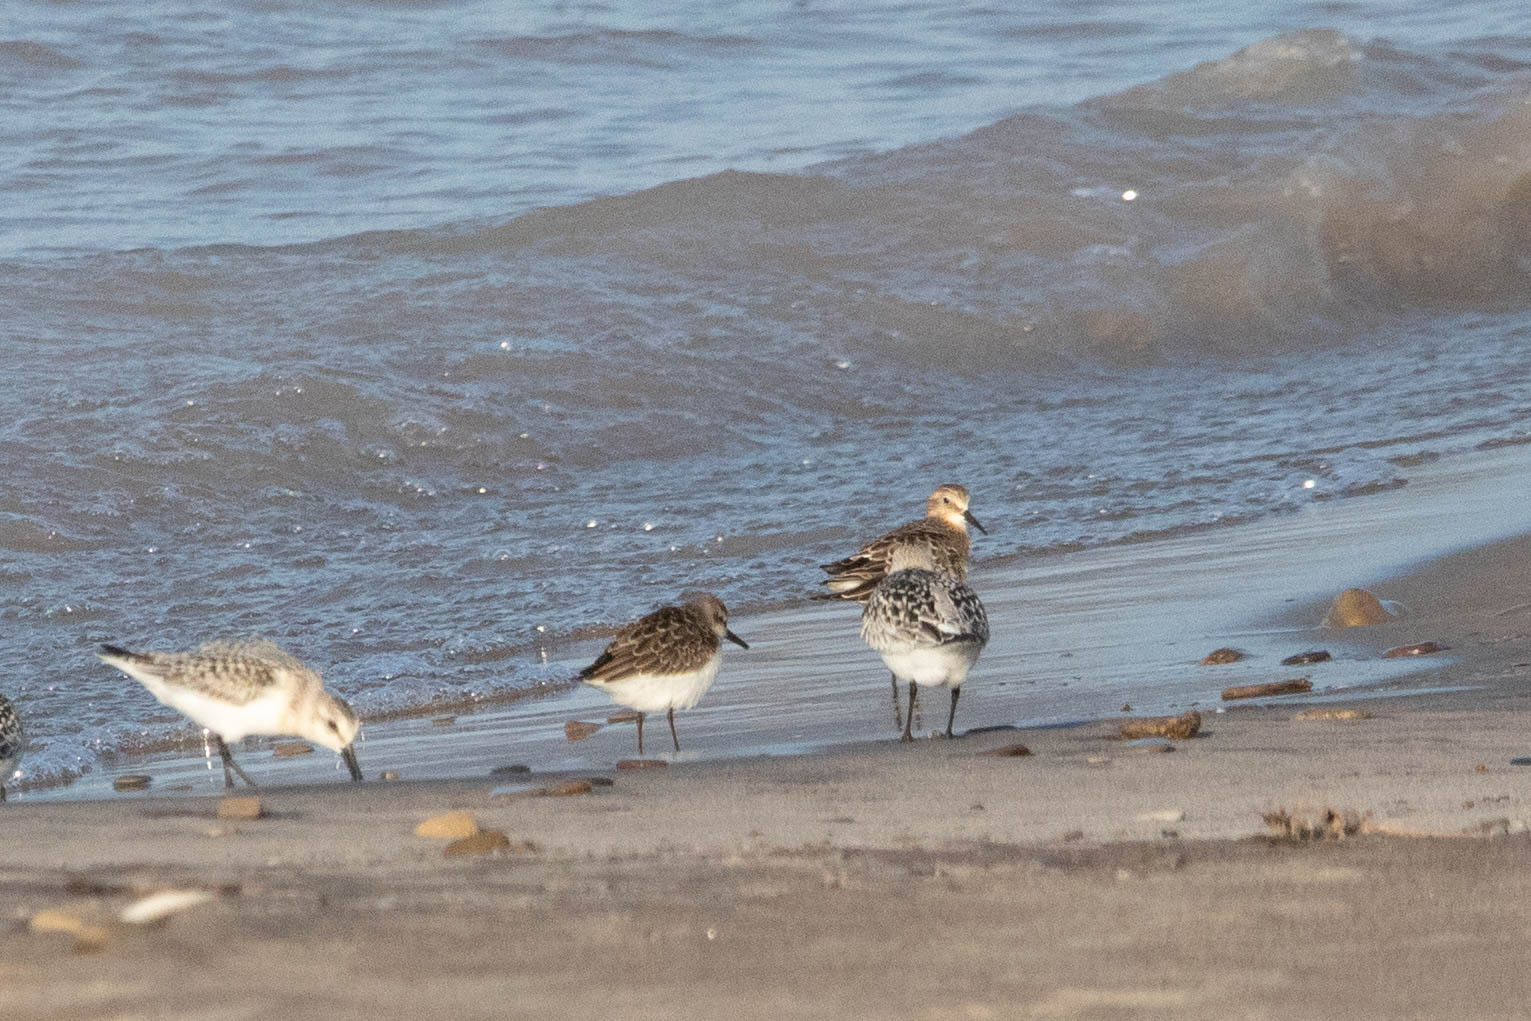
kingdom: Animalia
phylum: Chordata
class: Aves
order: Charadriiformes
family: Scolopacidae
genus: Calidris
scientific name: Calidris pusilla
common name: Semipalmated sandpiper
